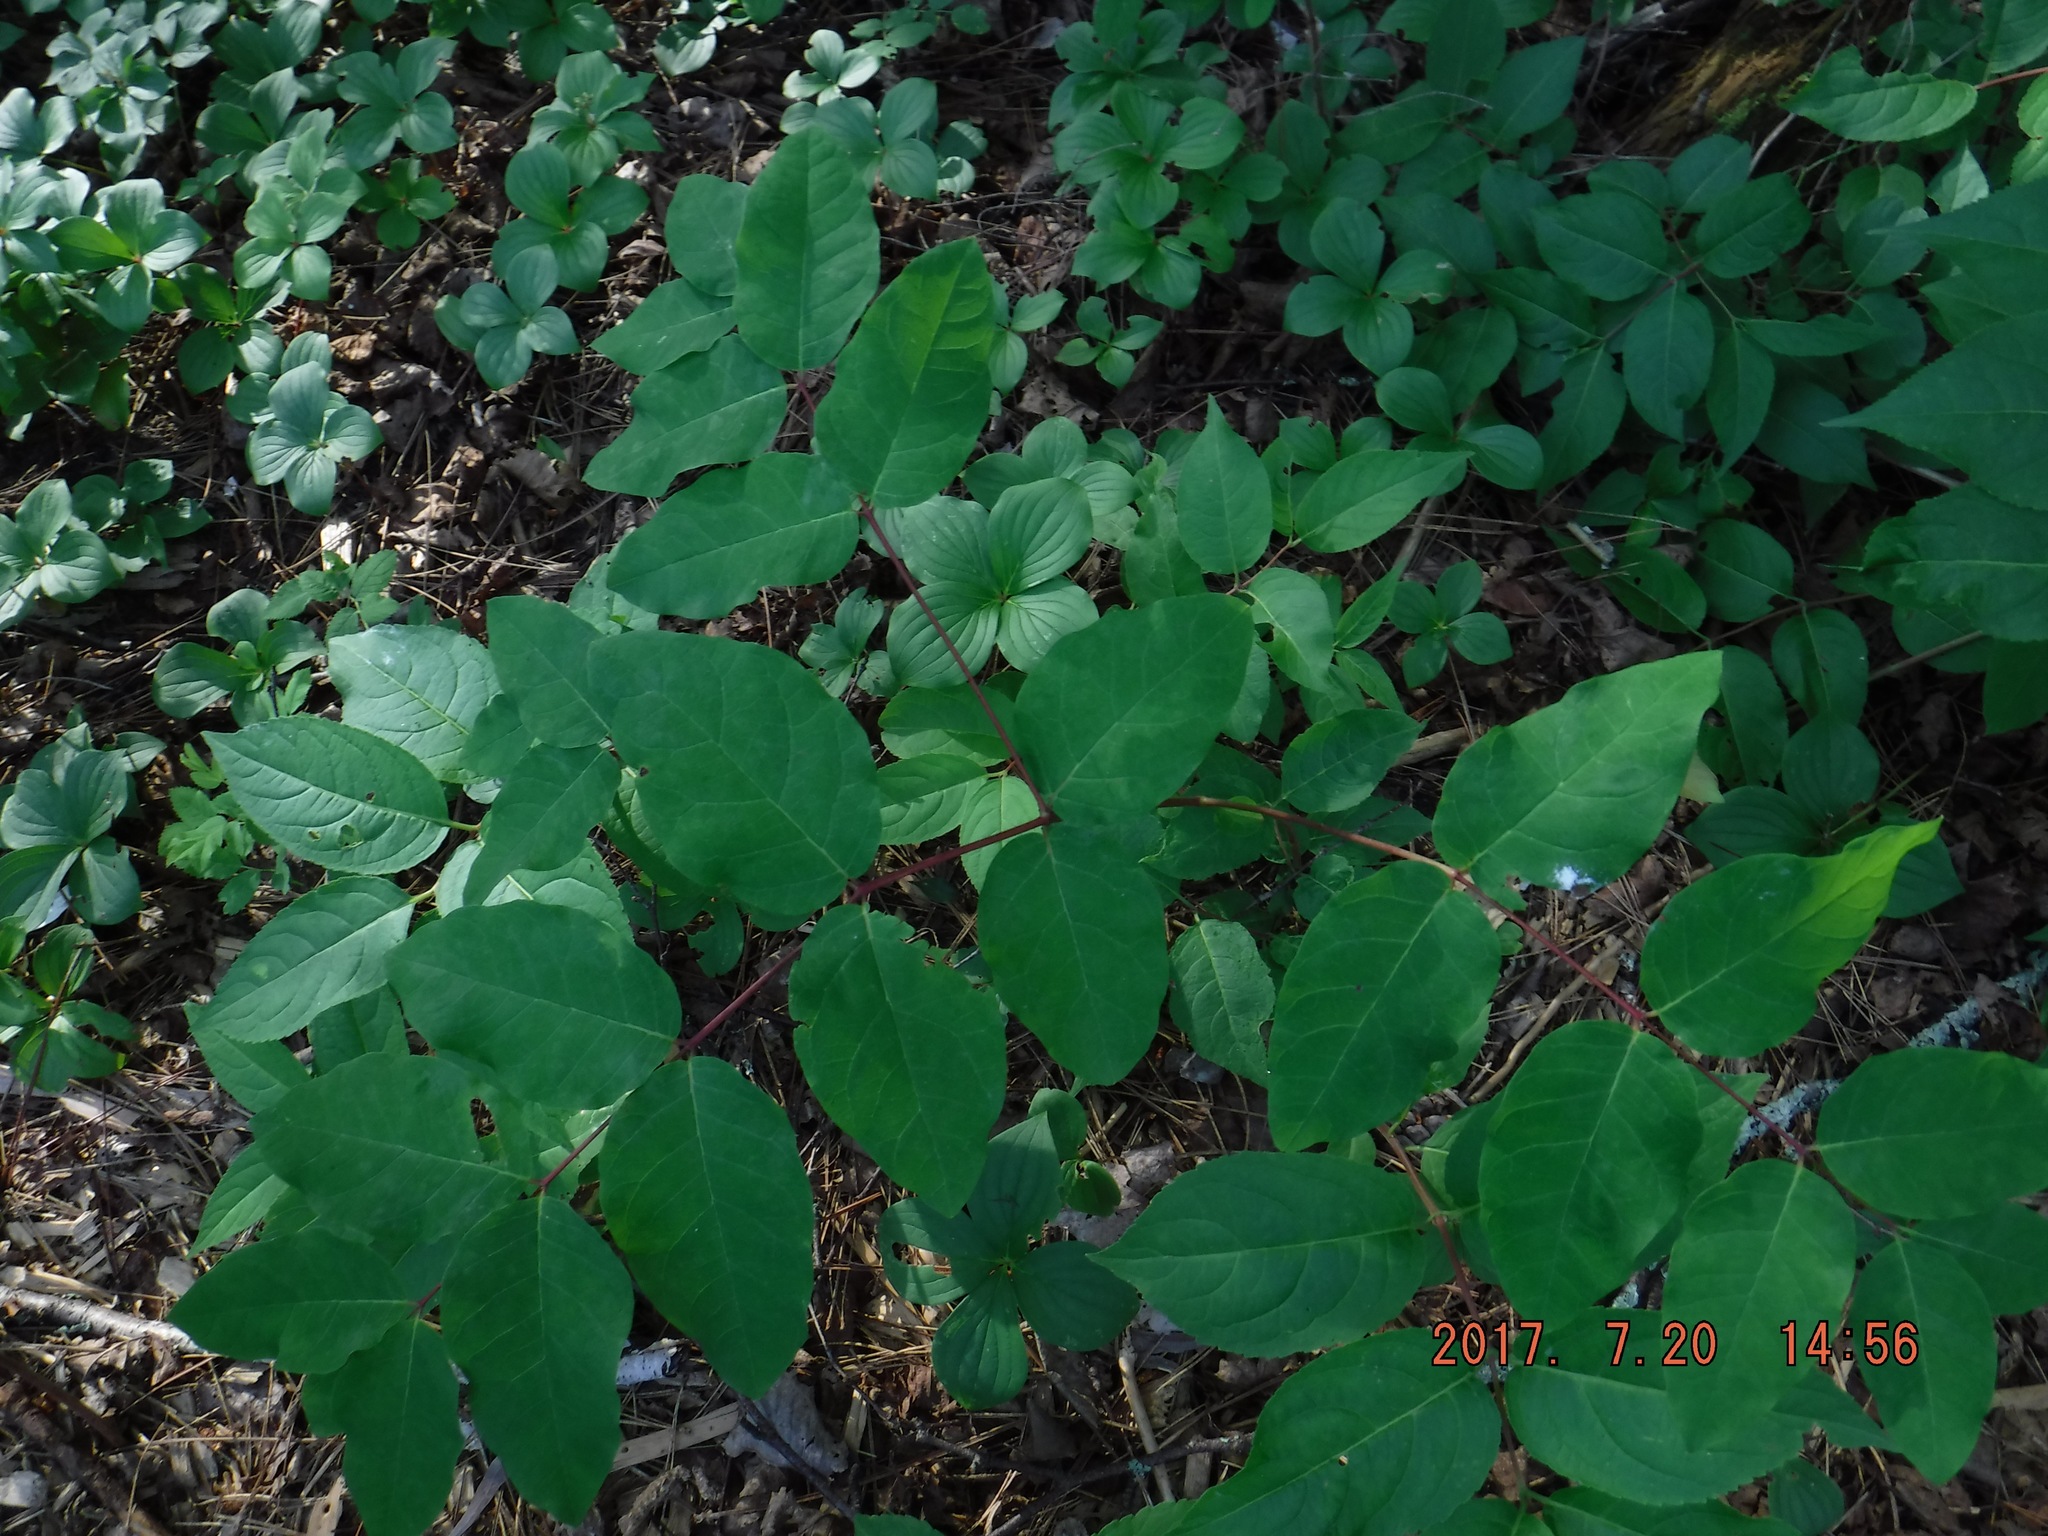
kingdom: Plantae
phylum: Tracheophyta
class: Magnoliopsida
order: Gentianales
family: Apocynaceae
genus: Apocynum
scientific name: Apocynum androsaemifolium
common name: Spreading dogbane
